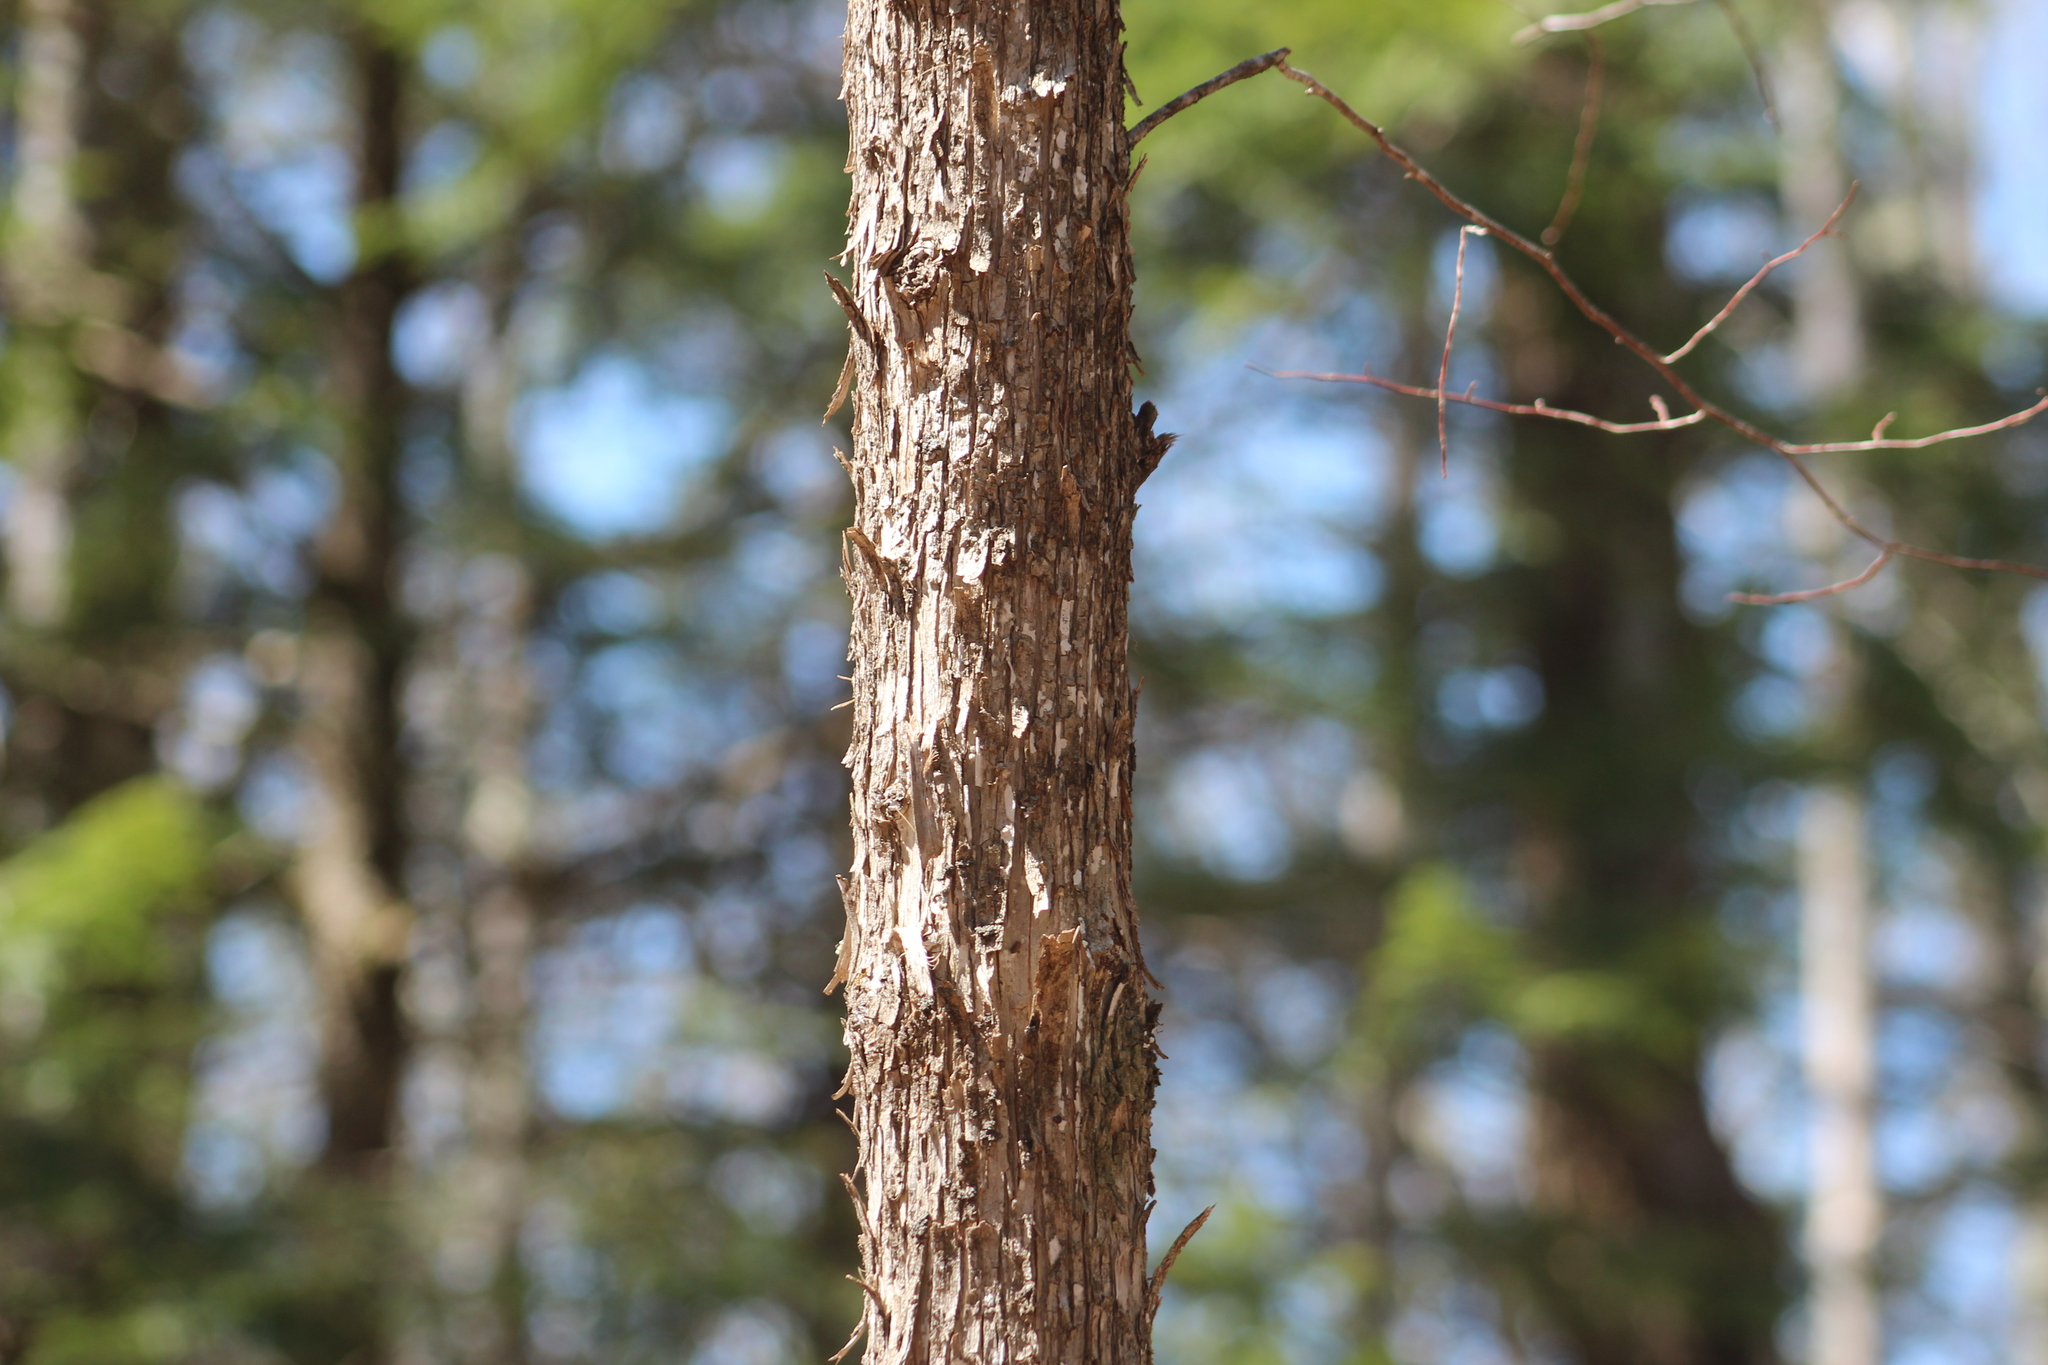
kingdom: Plantae
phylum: Tracheophyta
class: Magnoliopsida
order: Fagales
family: Betulaceae
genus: Ostrya
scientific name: Ostrya virginiana
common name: Ironwood
